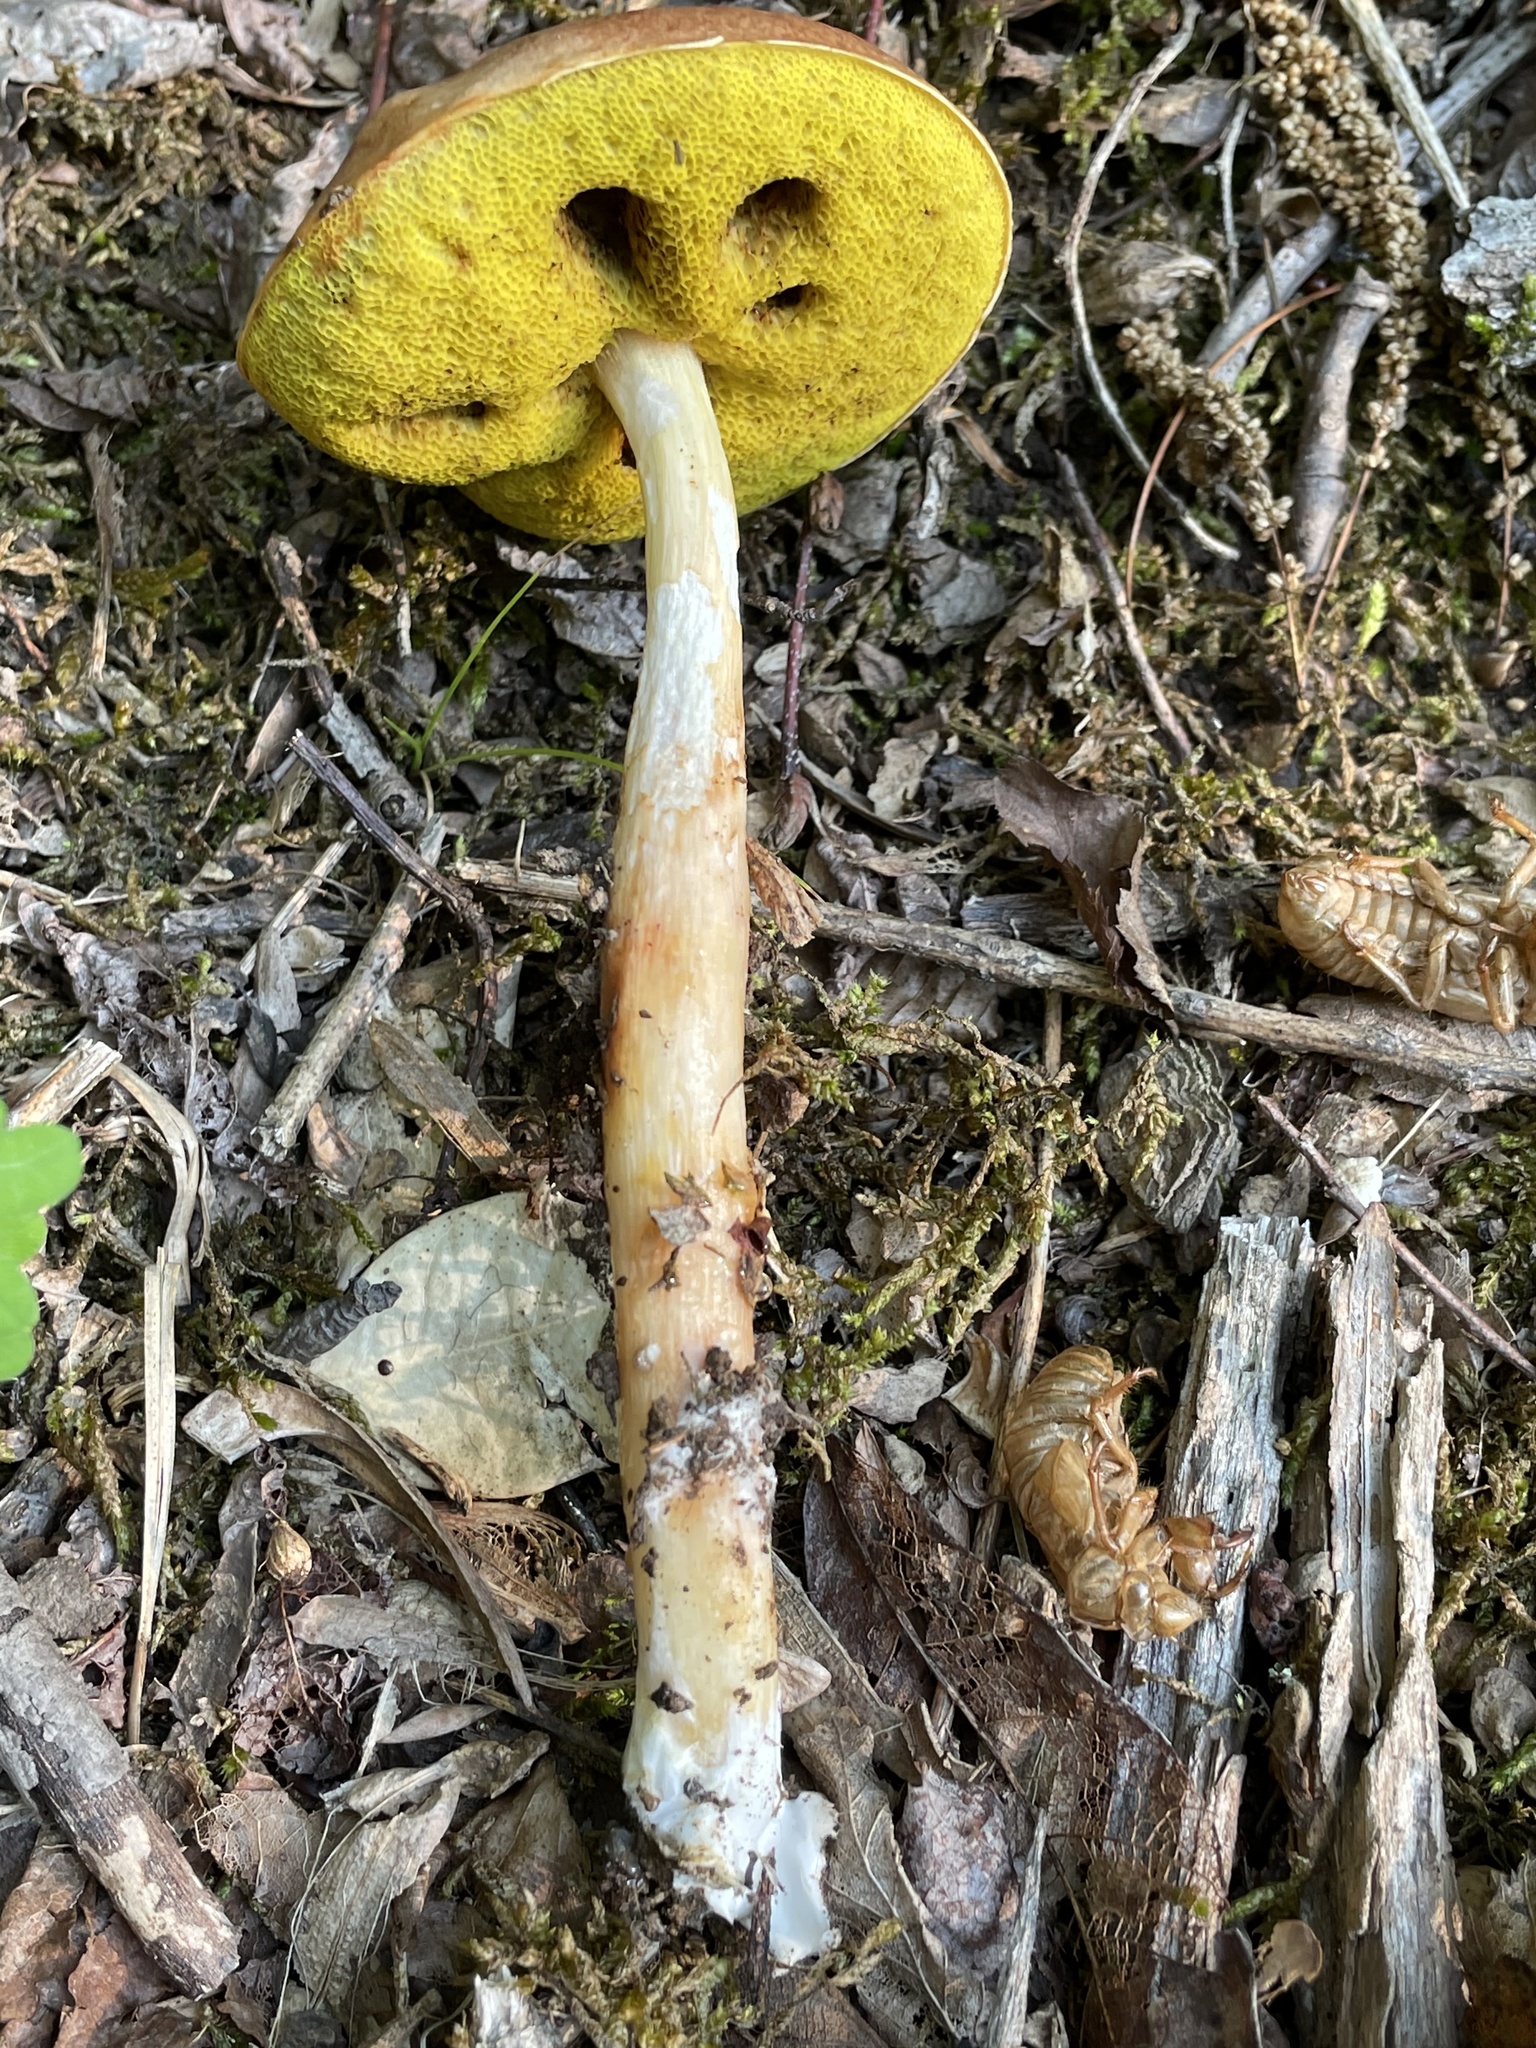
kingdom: Fungi
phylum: Basidiomycota
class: Agaricomycetes
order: Boletales
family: Boletaceae
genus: Aureoboletus
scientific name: Aureoboletus auriporus
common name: Sour gold-pored bolete
